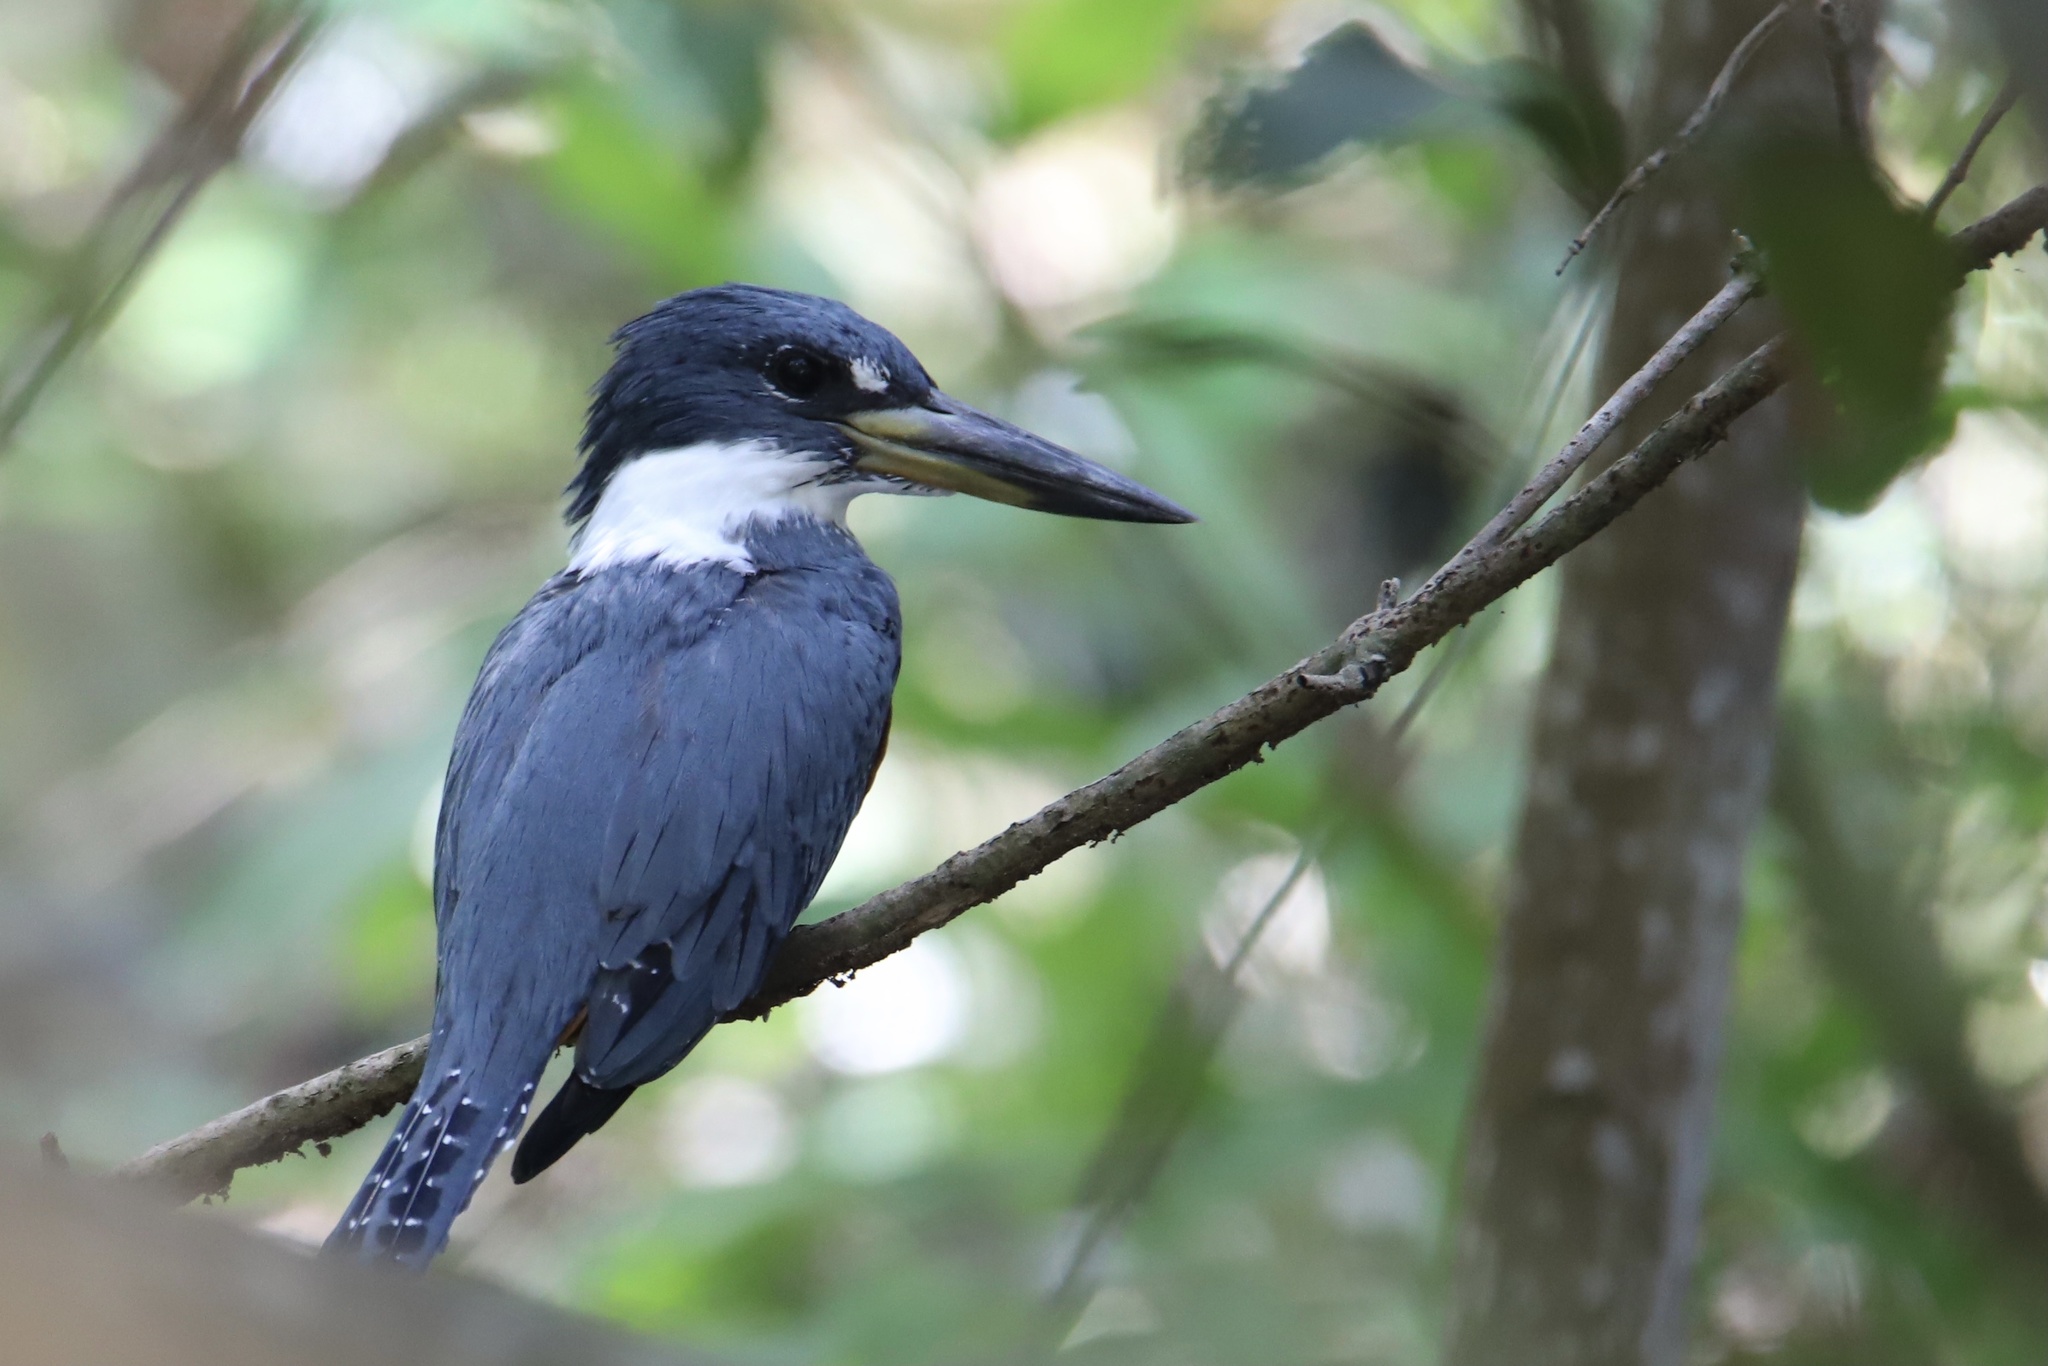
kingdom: Animalia
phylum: Chordata
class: Aves
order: Coraciiformes
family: Alcedinidae
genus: Megaceryle
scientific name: Megaceryle torquata
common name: Ringed kingfisher
